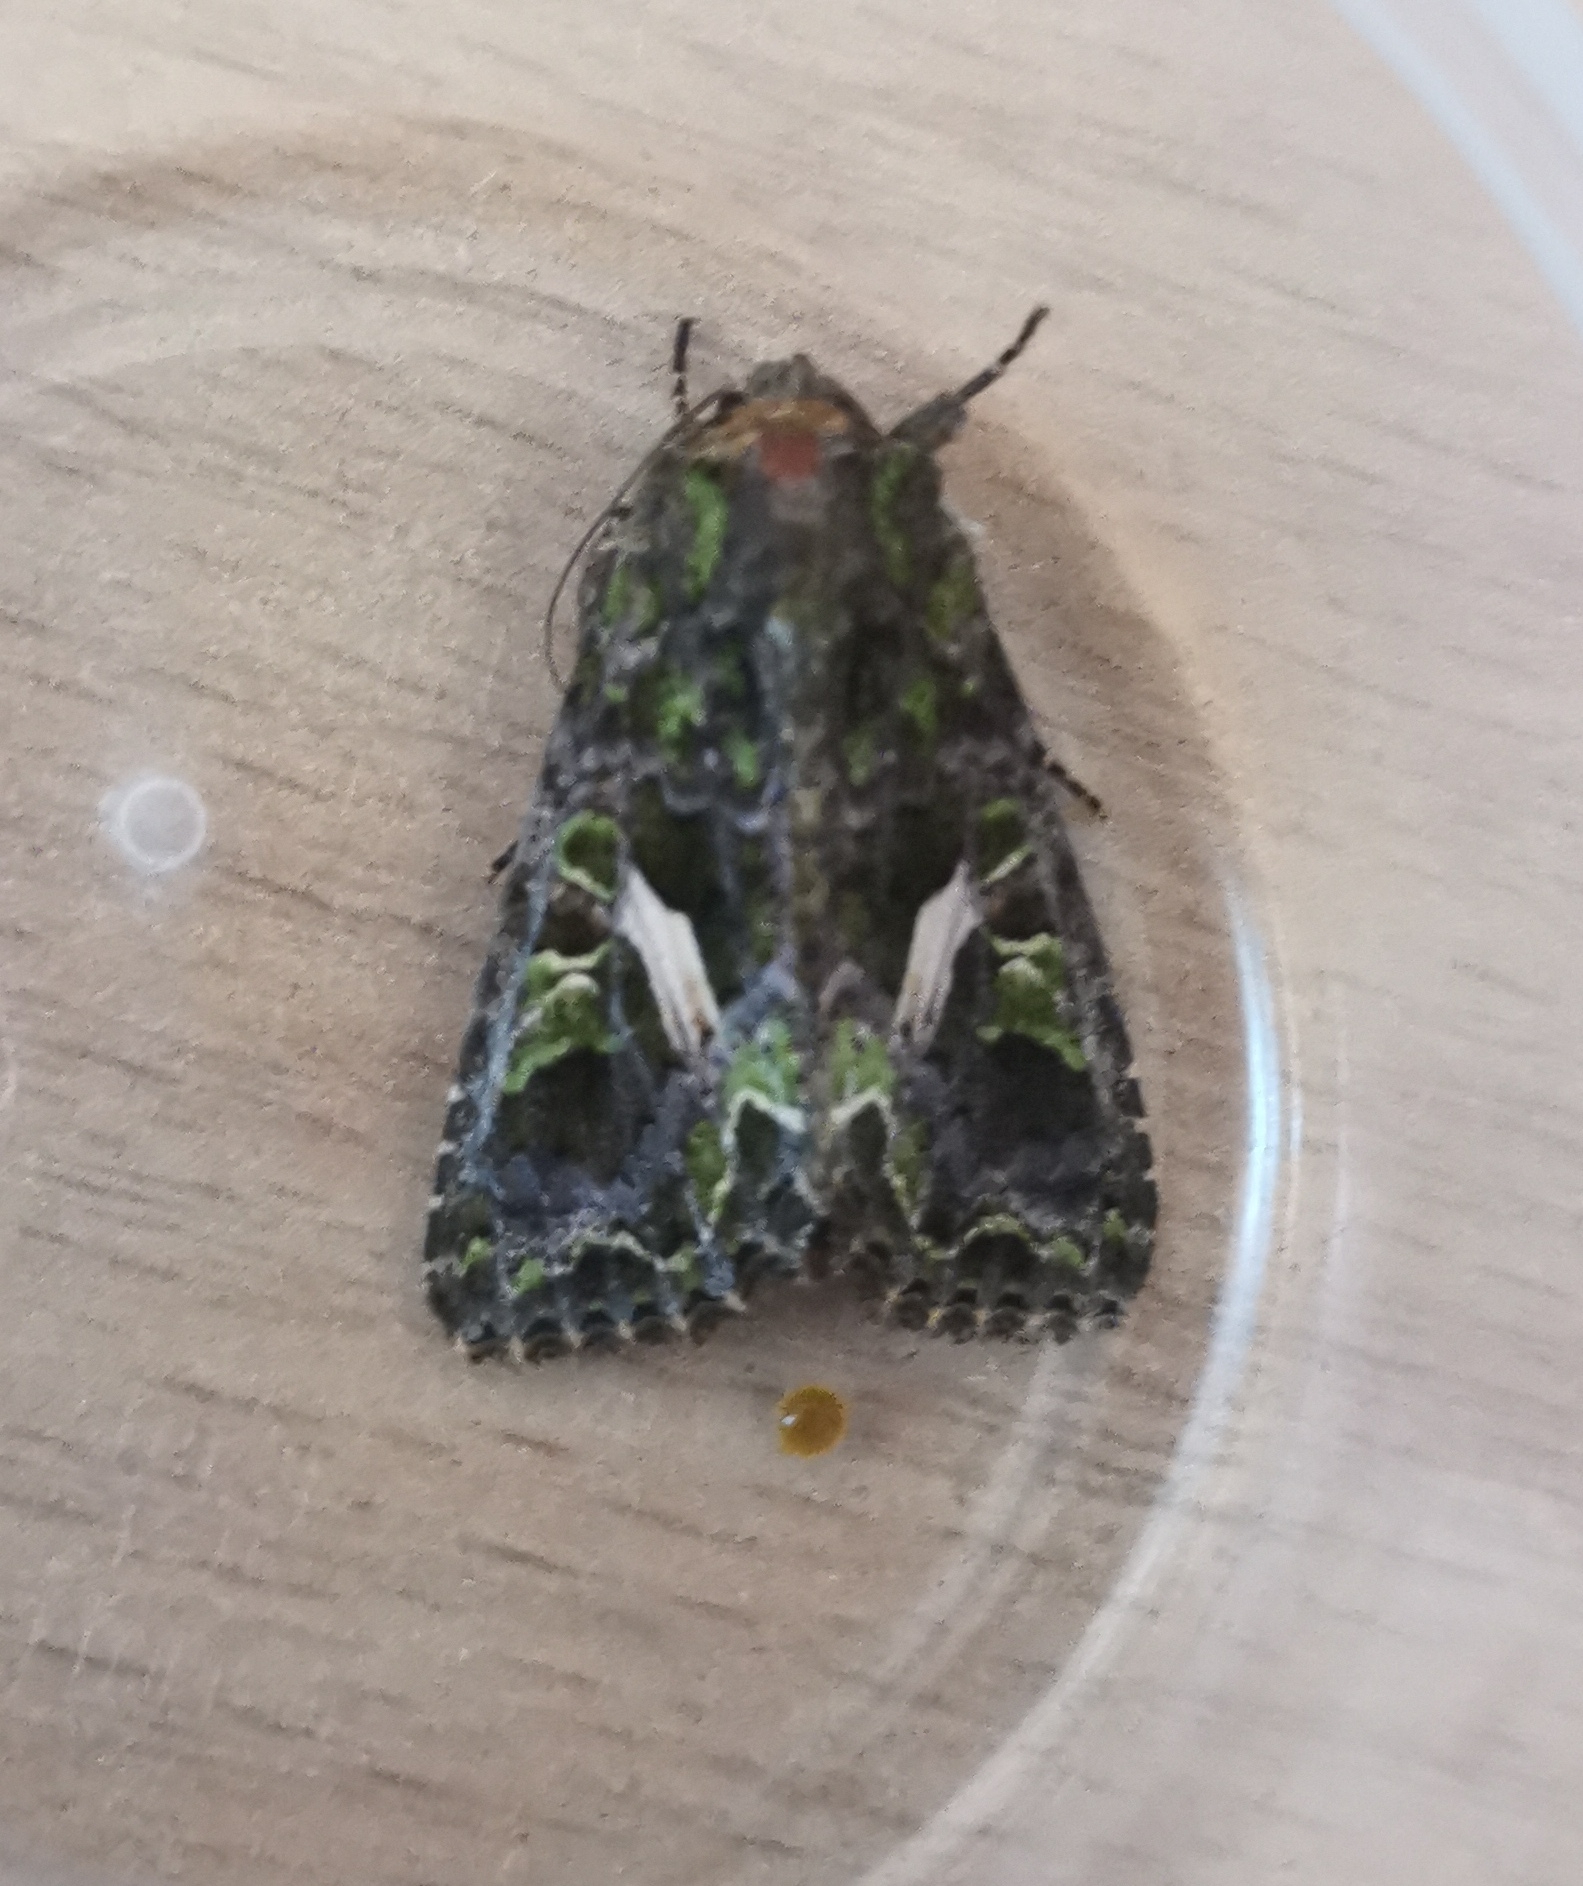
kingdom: Animalia
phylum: Arthropoda
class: Insecta
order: Lepidoptera
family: Noctuidae
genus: Trachea
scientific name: Trachea atriplicis
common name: Orache moth
